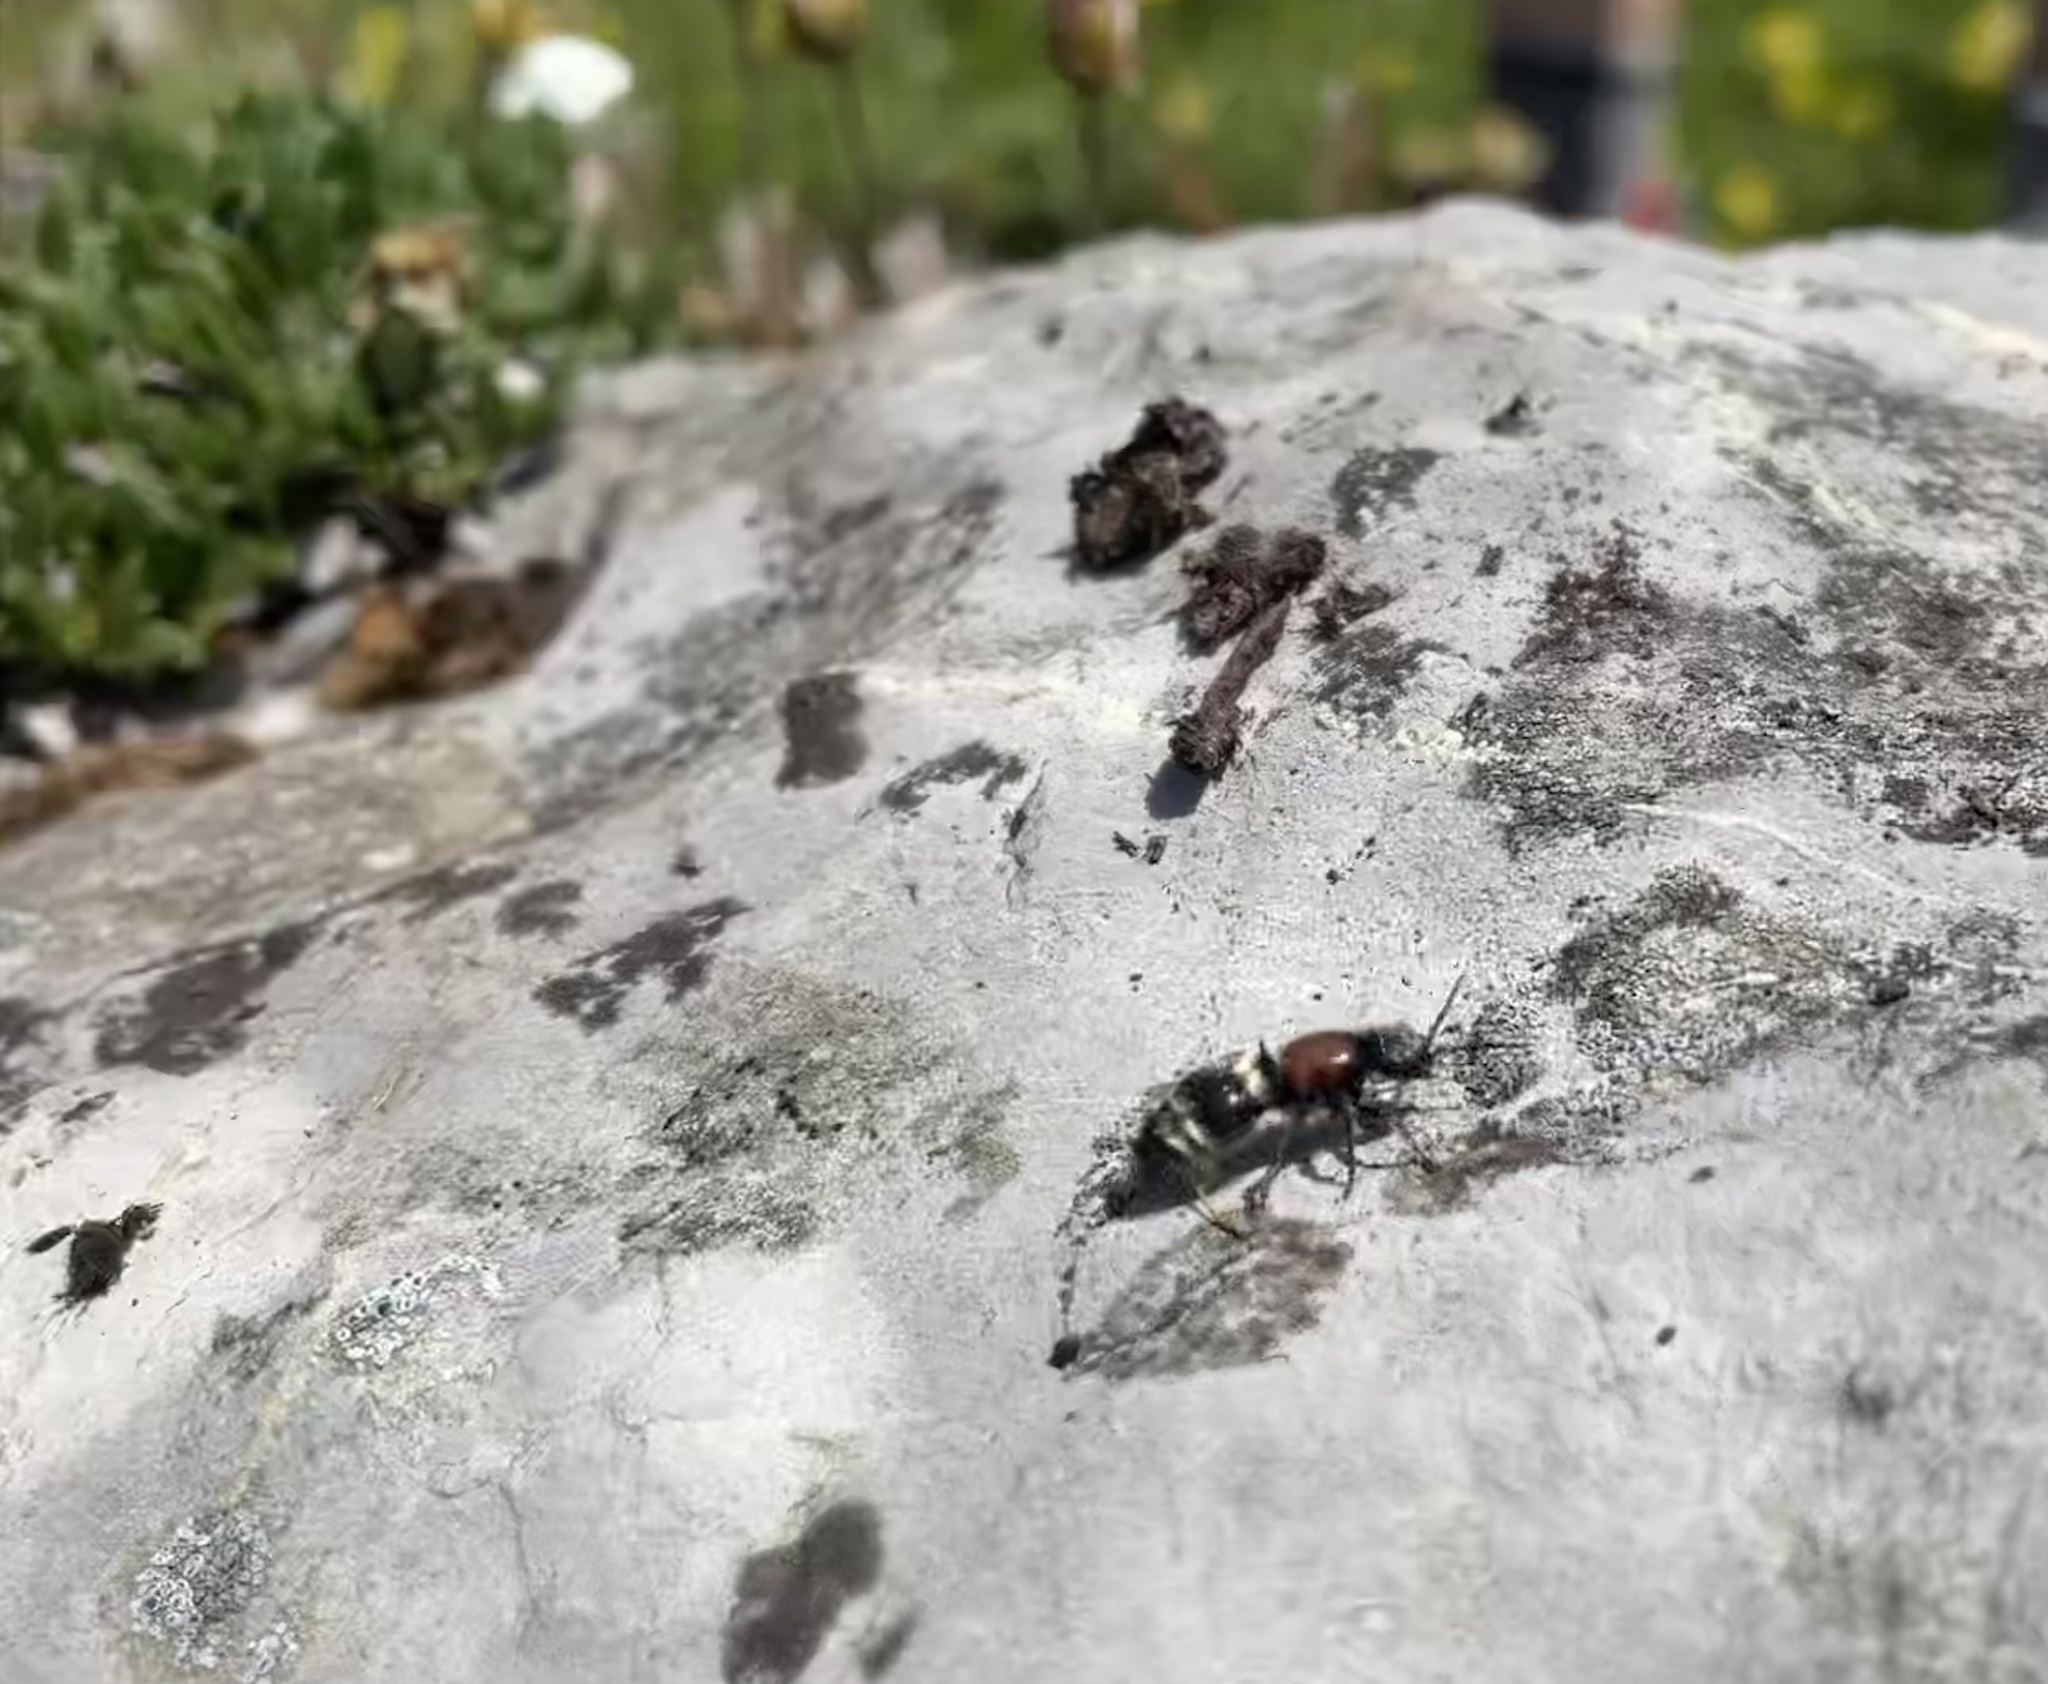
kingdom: Animalia
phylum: Arthropoda
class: Insecta
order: Hymenoptera
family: Mutillidae
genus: Mutilla
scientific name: Mutilla europaea
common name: Large velvet ant
